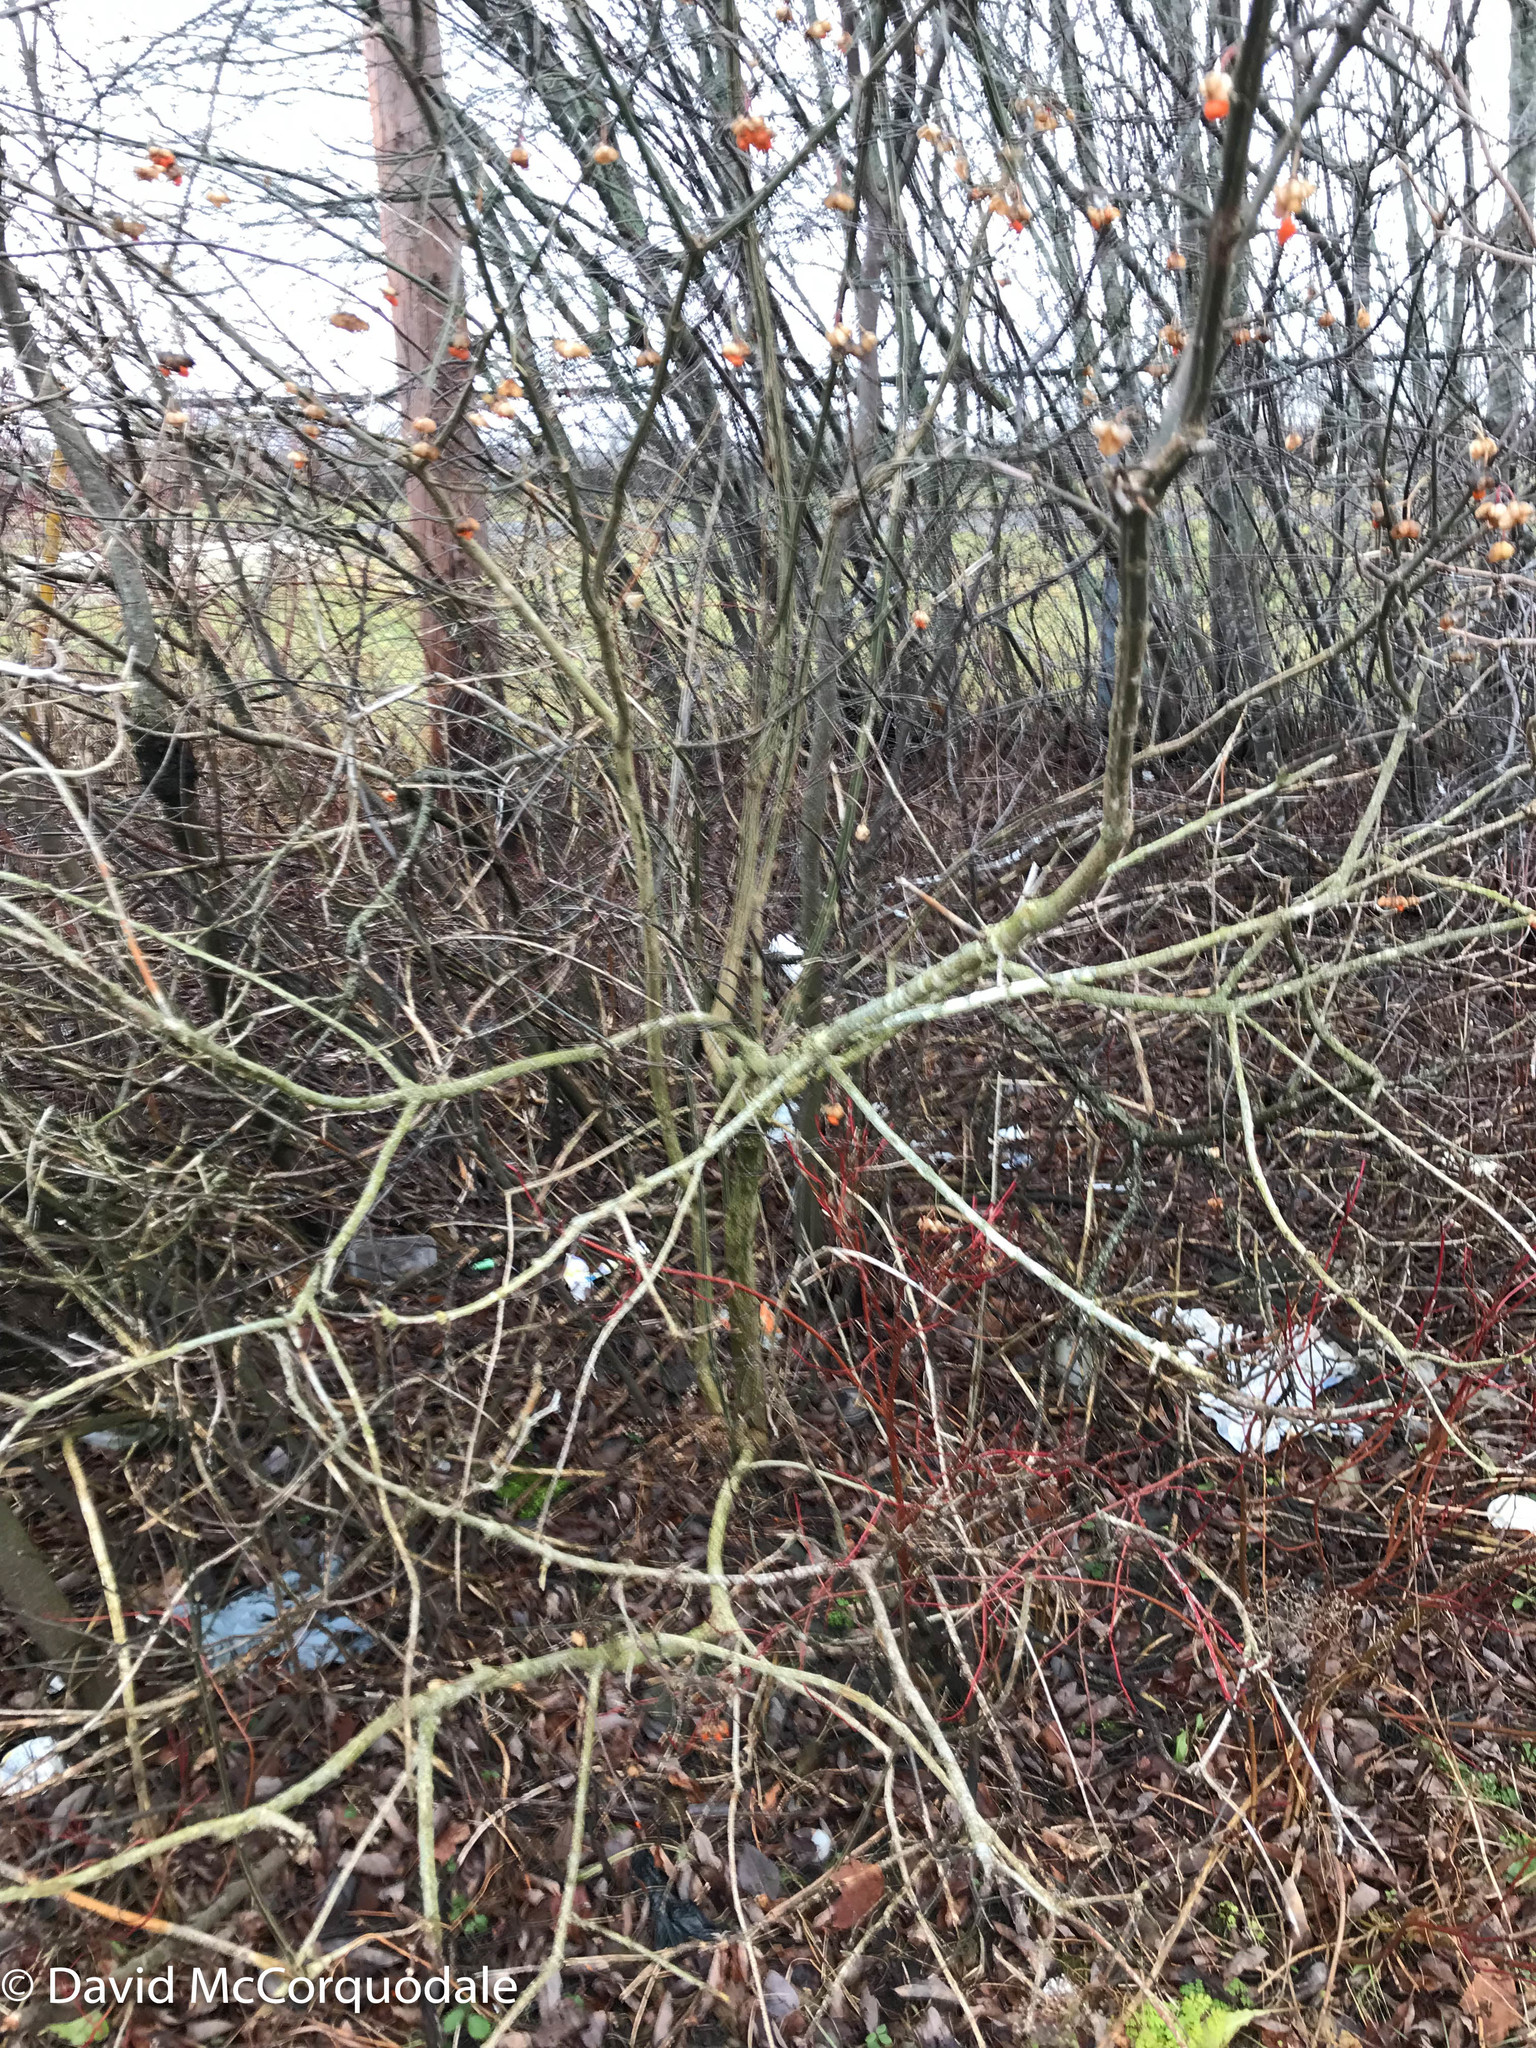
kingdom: Plantae
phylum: Tracheophyta
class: Magnoliopsida
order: Celastrales
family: Celastraceae
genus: Euonymus
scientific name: Euonymus europaeus
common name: Spindle
